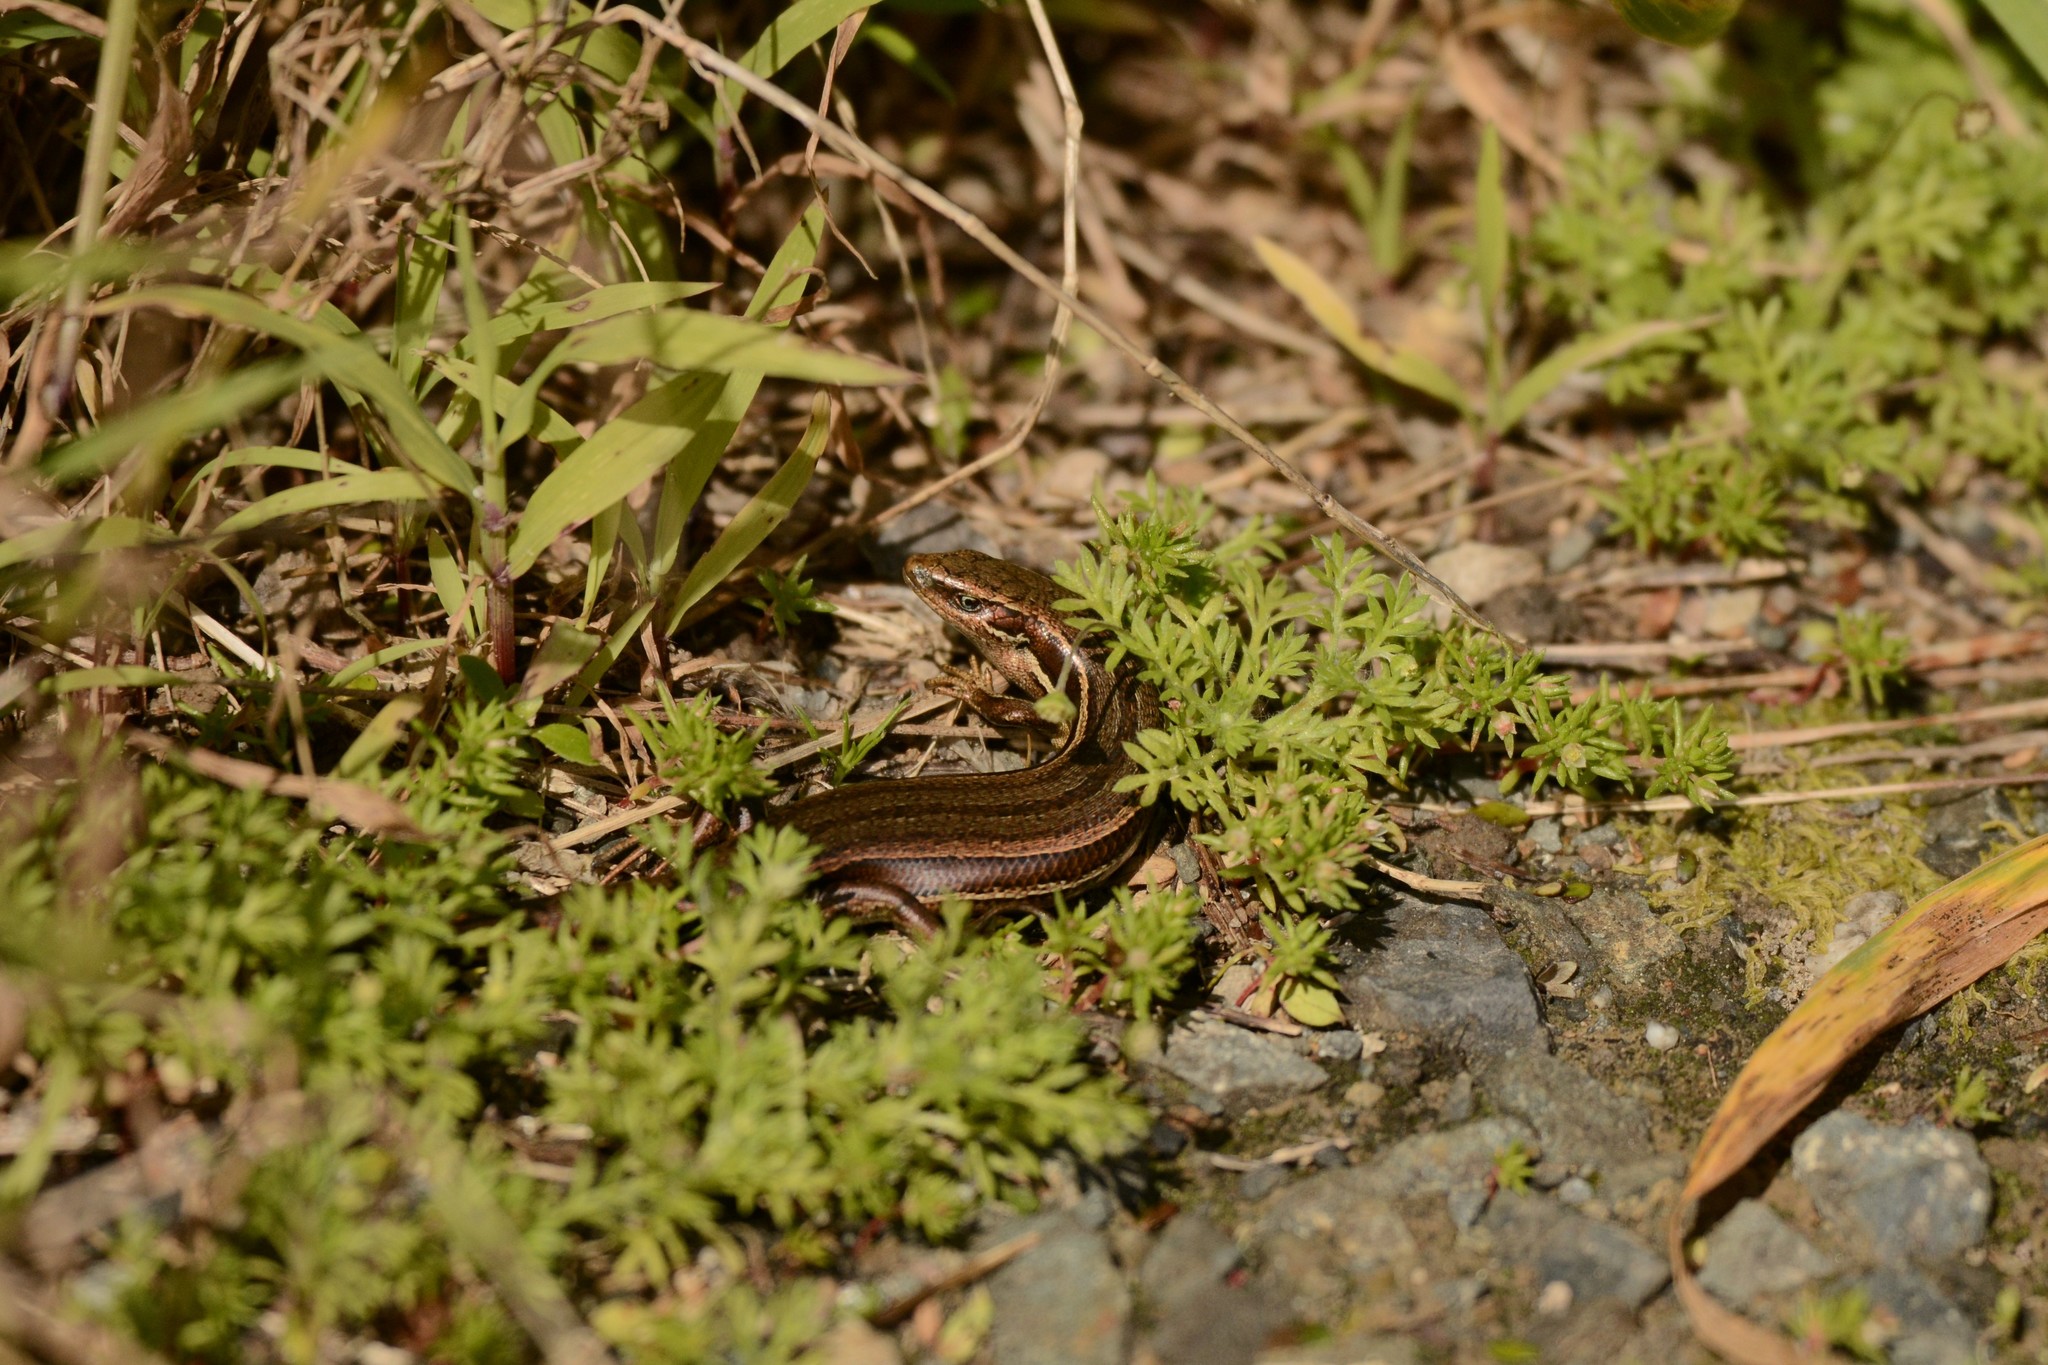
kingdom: Animalia
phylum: Chordata
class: Squamata
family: Scincidae
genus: Oligosoma
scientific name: Oligosoma polychroma
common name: Common new zealand skink
